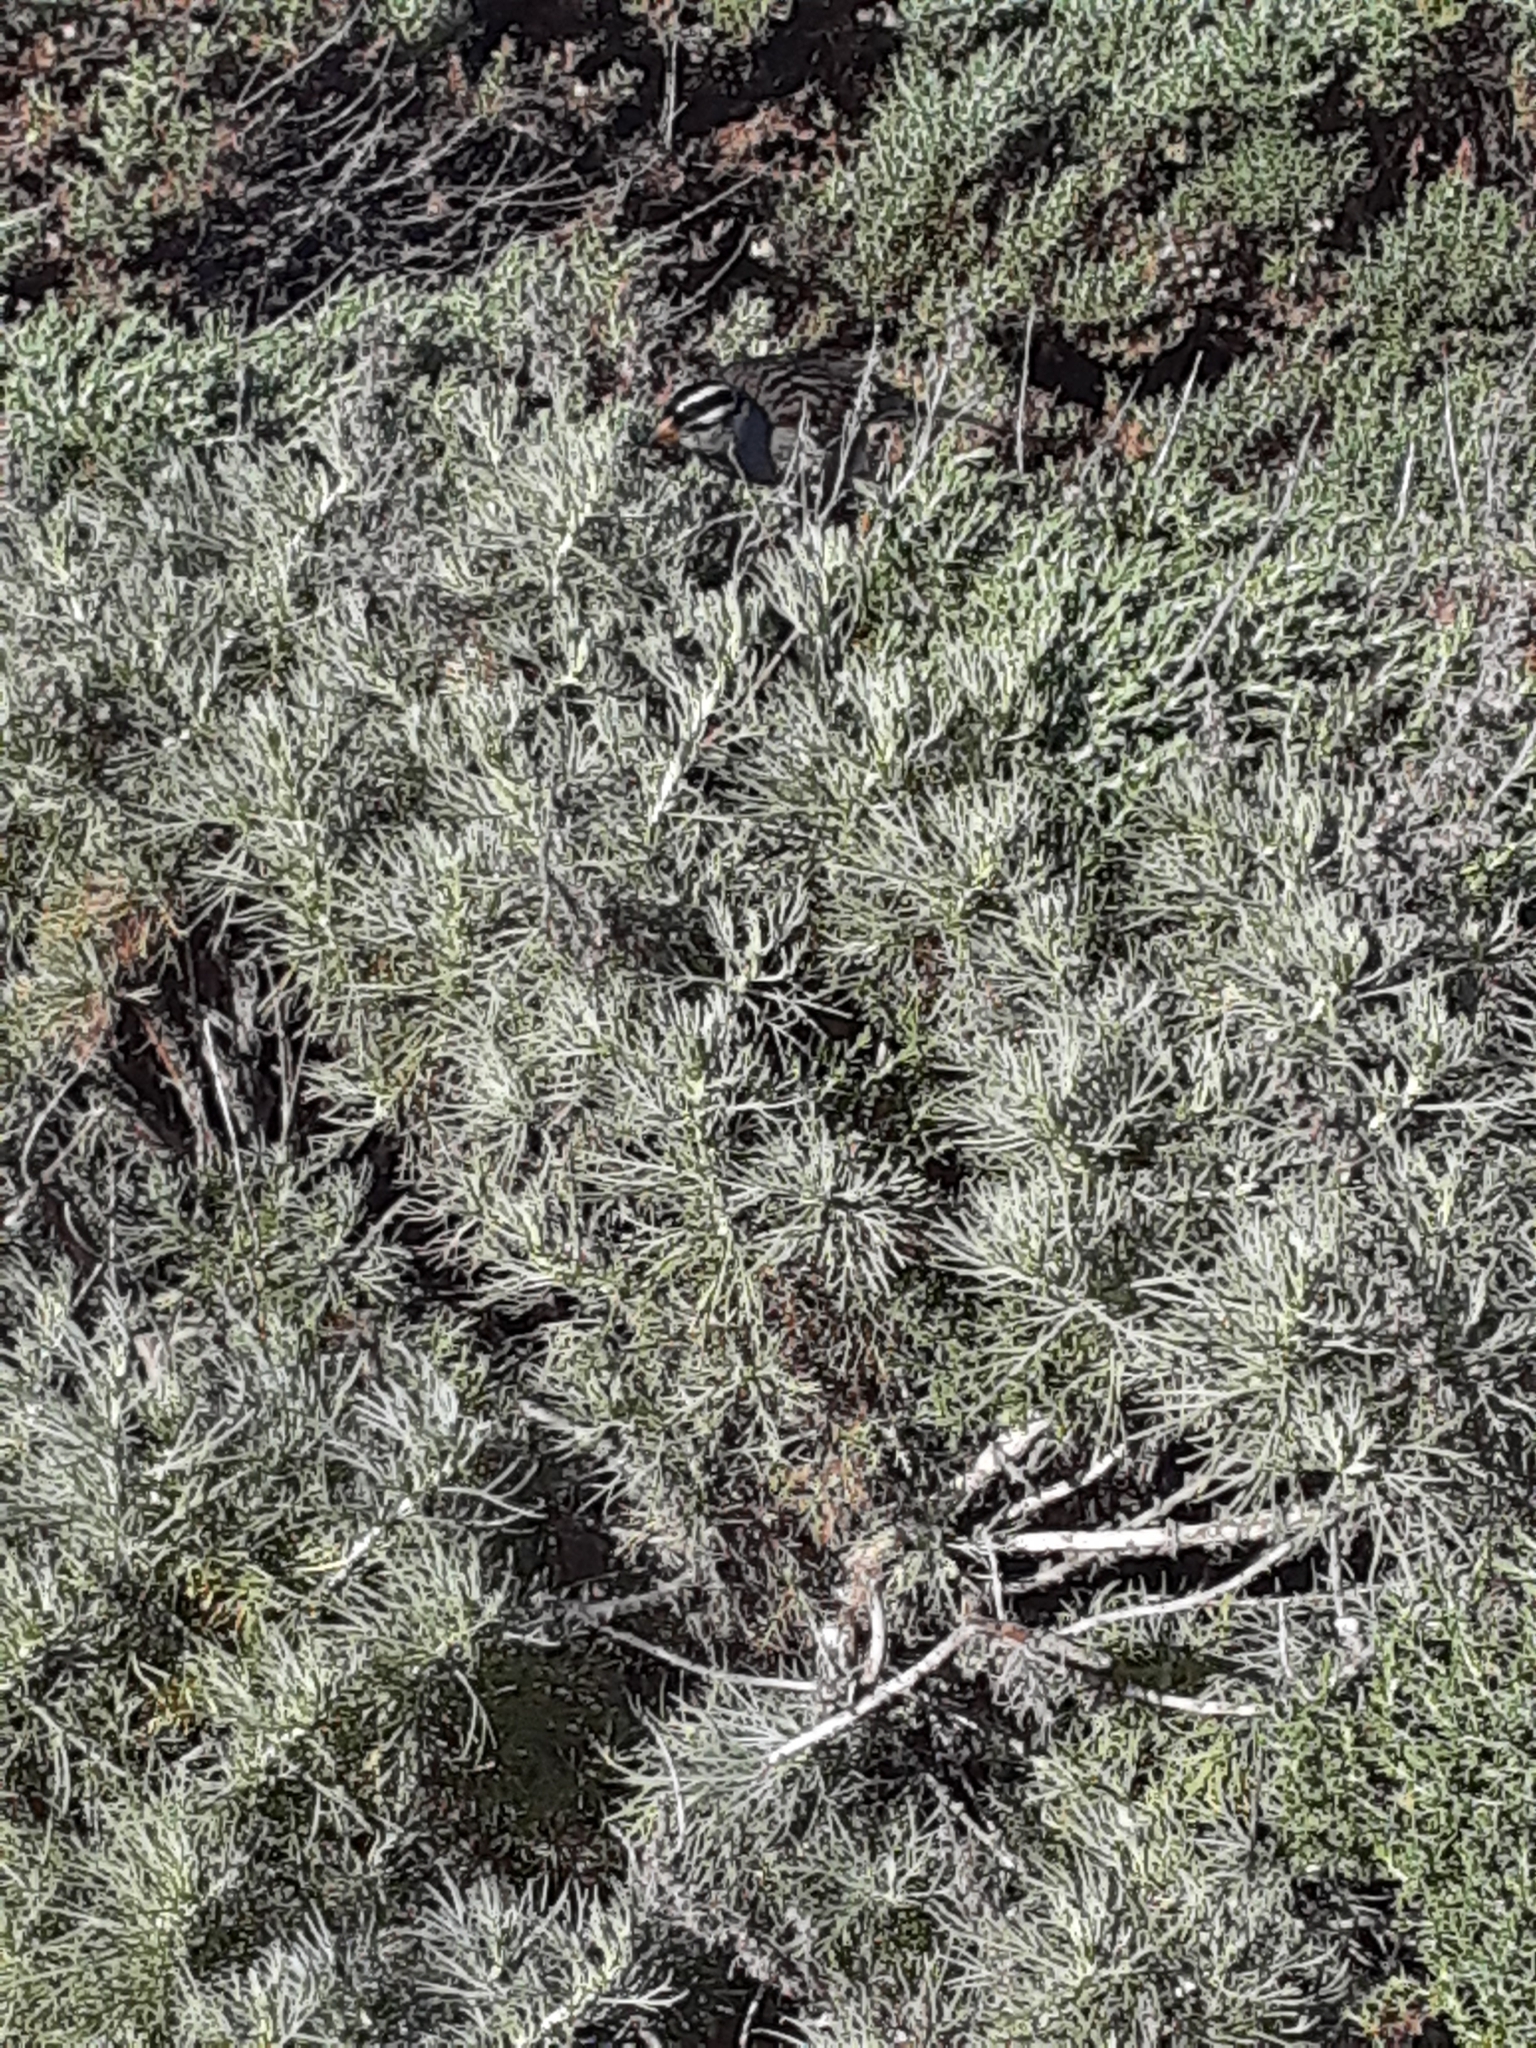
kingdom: Plantae
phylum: Tracheophyta
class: Magnoliopsida
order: Asterales
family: Asteraceae
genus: Artemisia
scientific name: Artemisia californica
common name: California sagebrush
